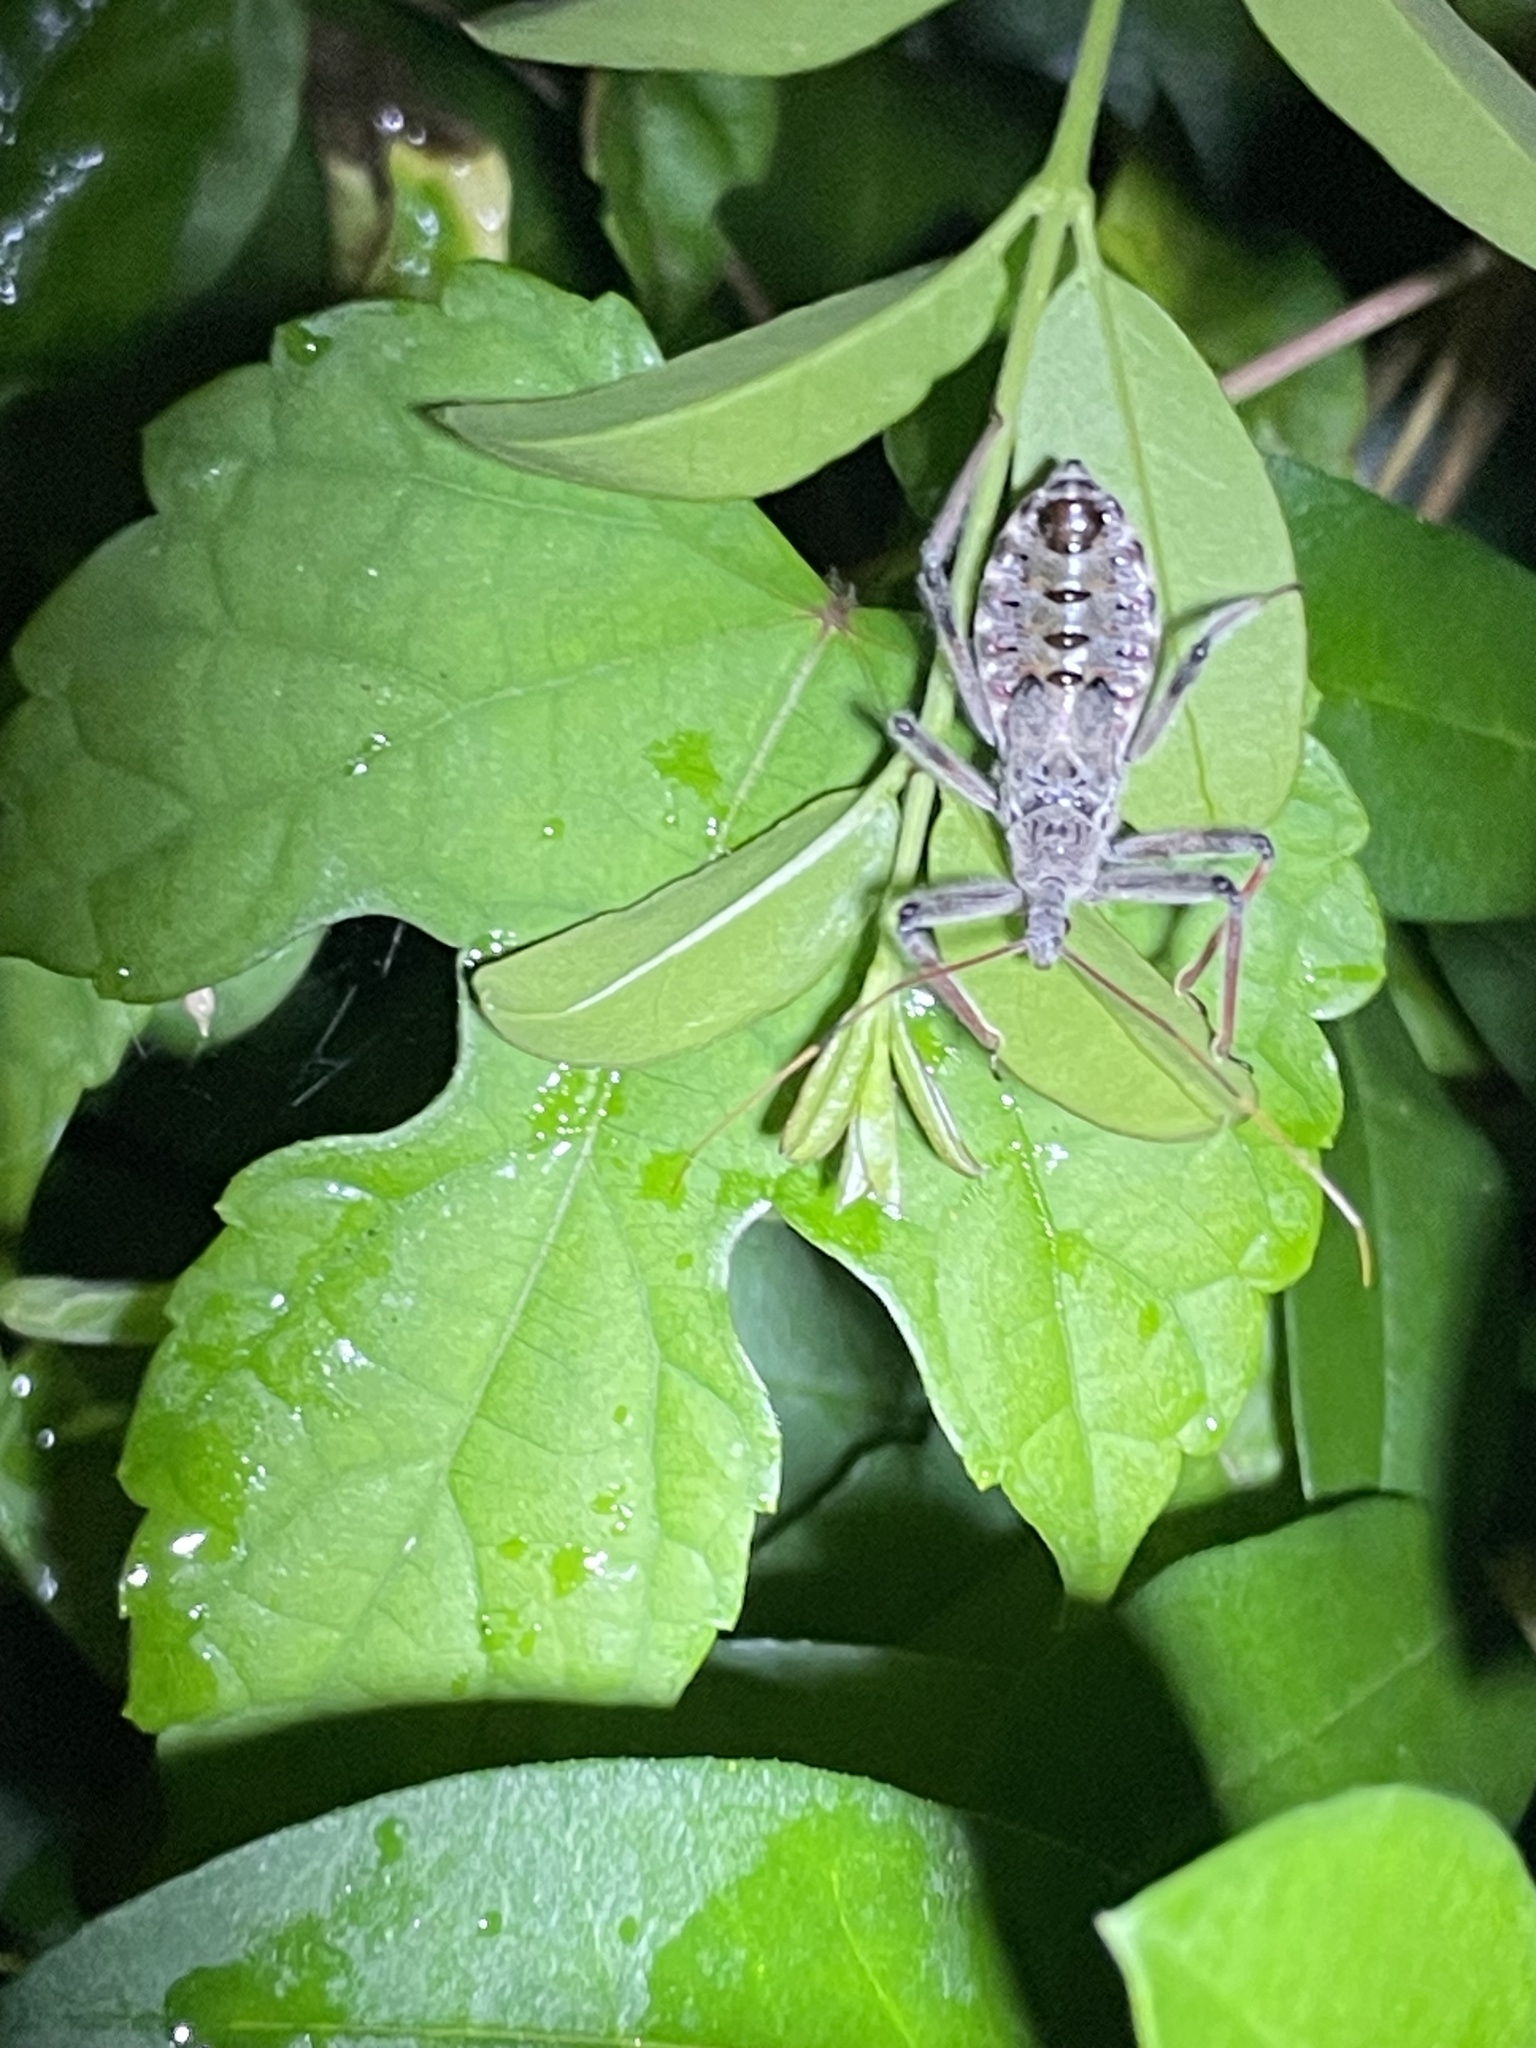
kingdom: Animalia
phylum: Arthropoda
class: Insecta
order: Hemiptera
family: Reduviidae
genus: Arilus
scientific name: Arilus cristatus
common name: North american wheel bug
